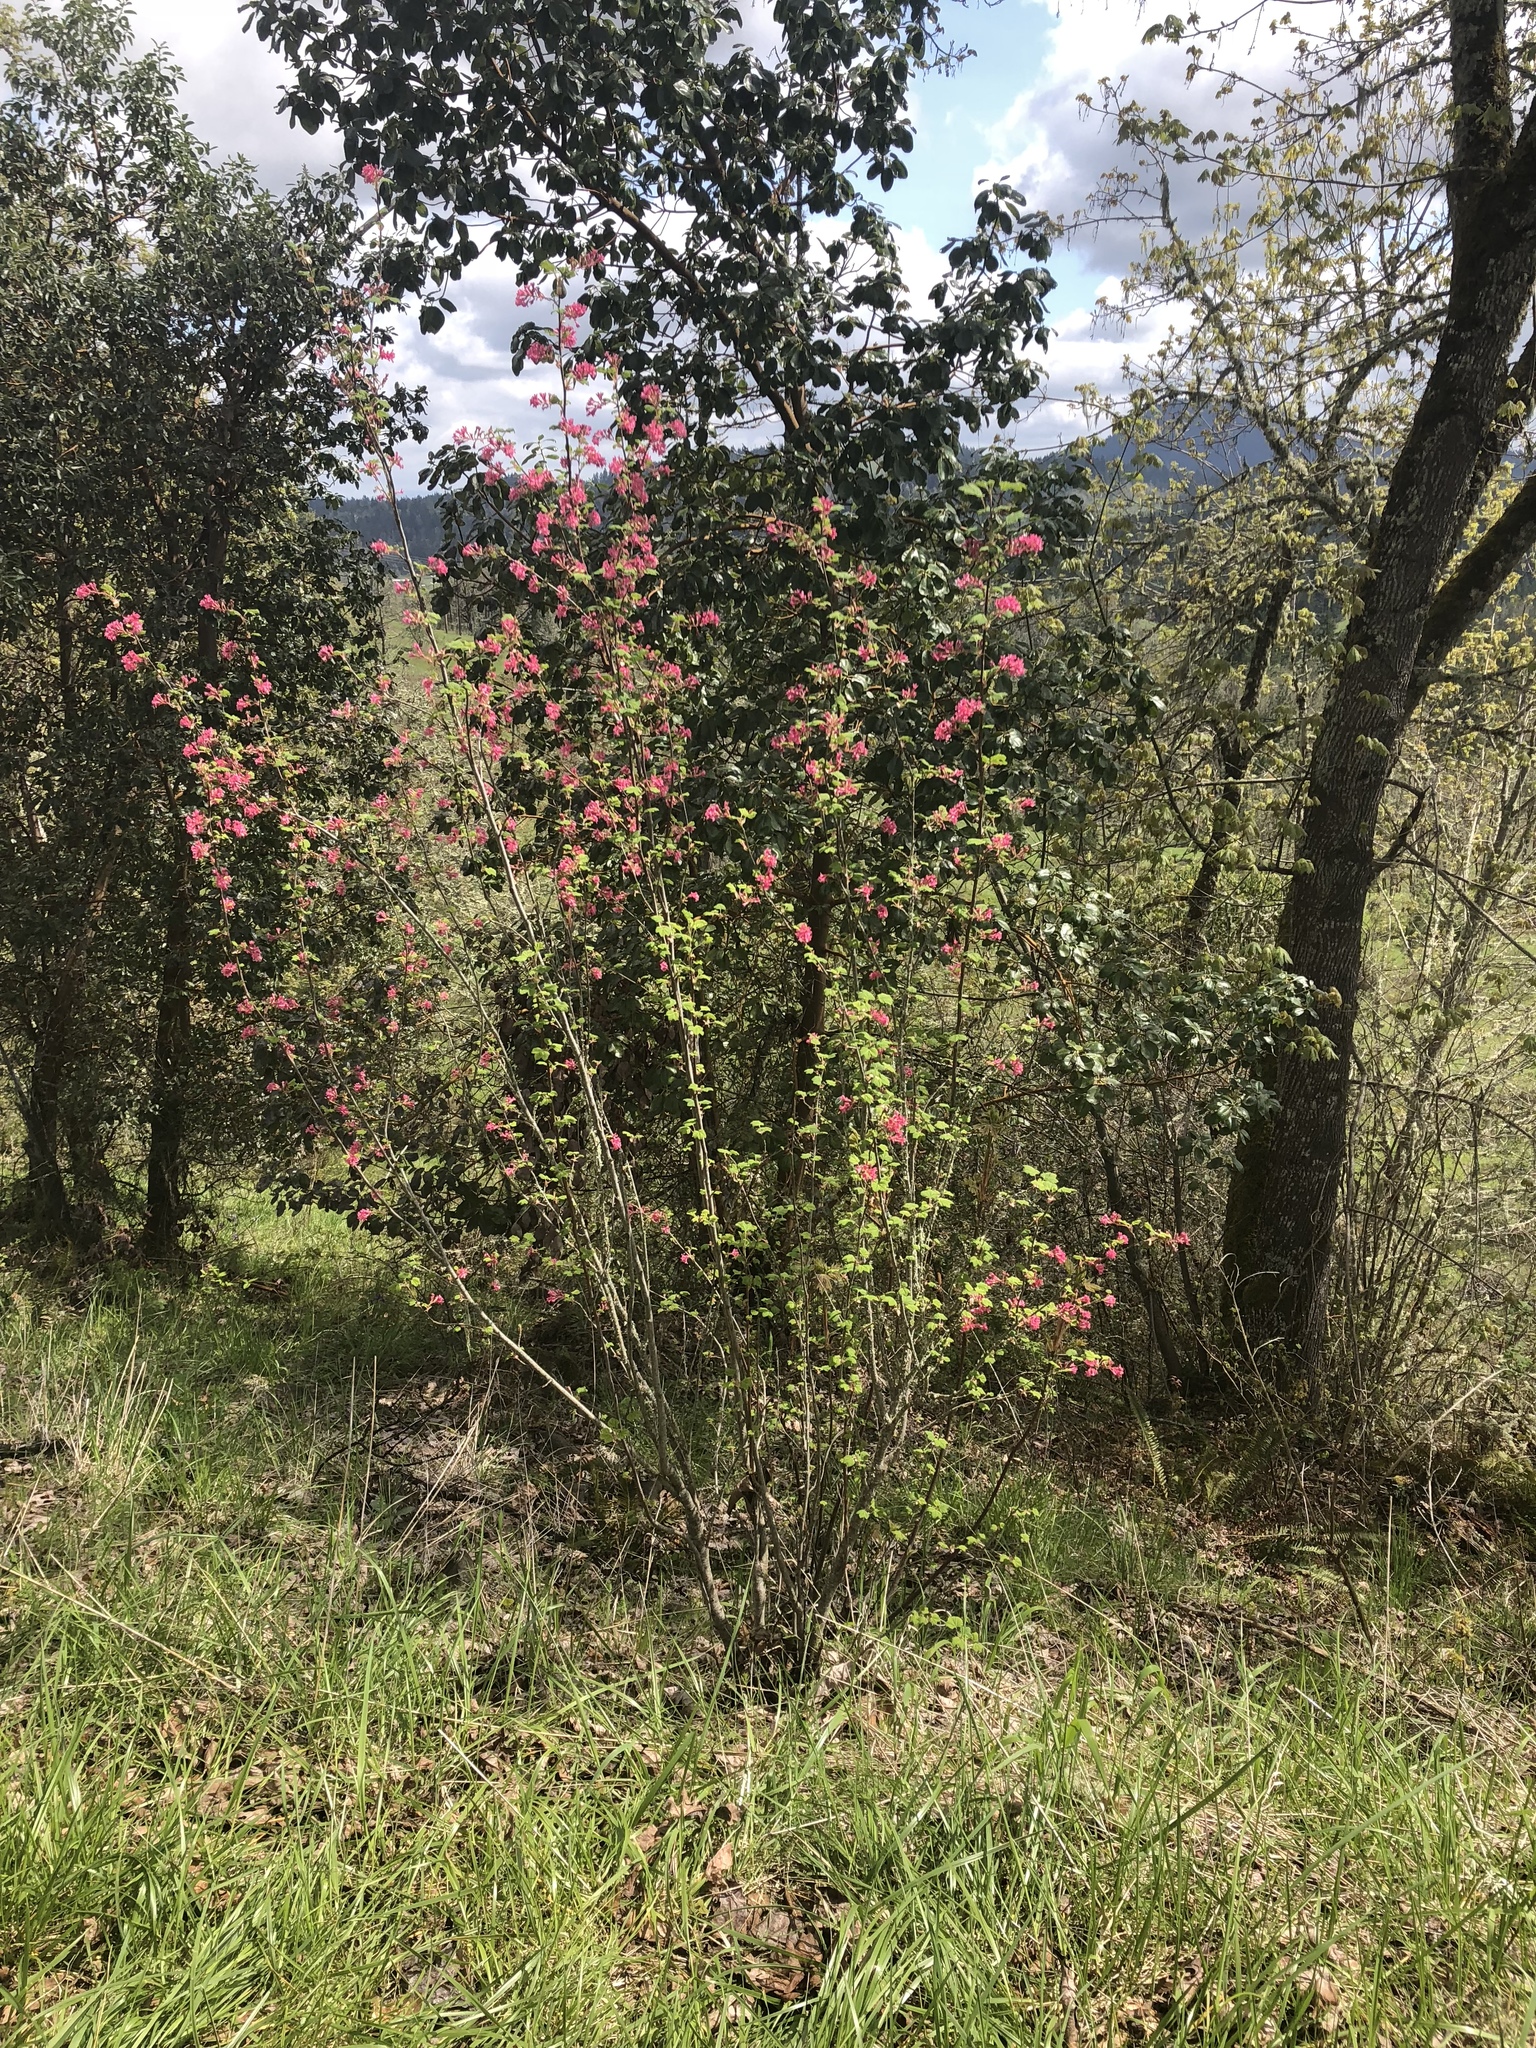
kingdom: Plantae
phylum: Tracheophyta
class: Magnoliopsida
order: Saxifragales
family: Grossulariaceae
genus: Ribes
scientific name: Ribes sanguineum
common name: Flowering currant
